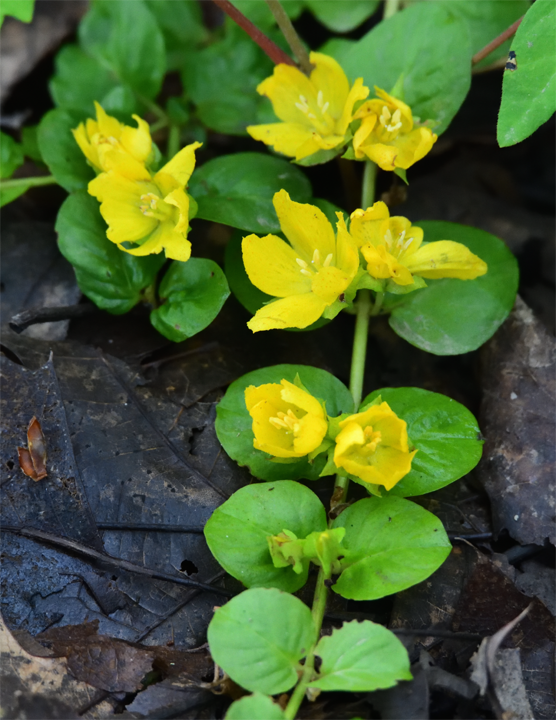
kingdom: Plantae
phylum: Tracheophyta
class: Magnoliopsida
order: Ericales
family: Primulaceae
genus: Lysimachia
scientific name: Lysimachia nummularia
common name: Moneywort
